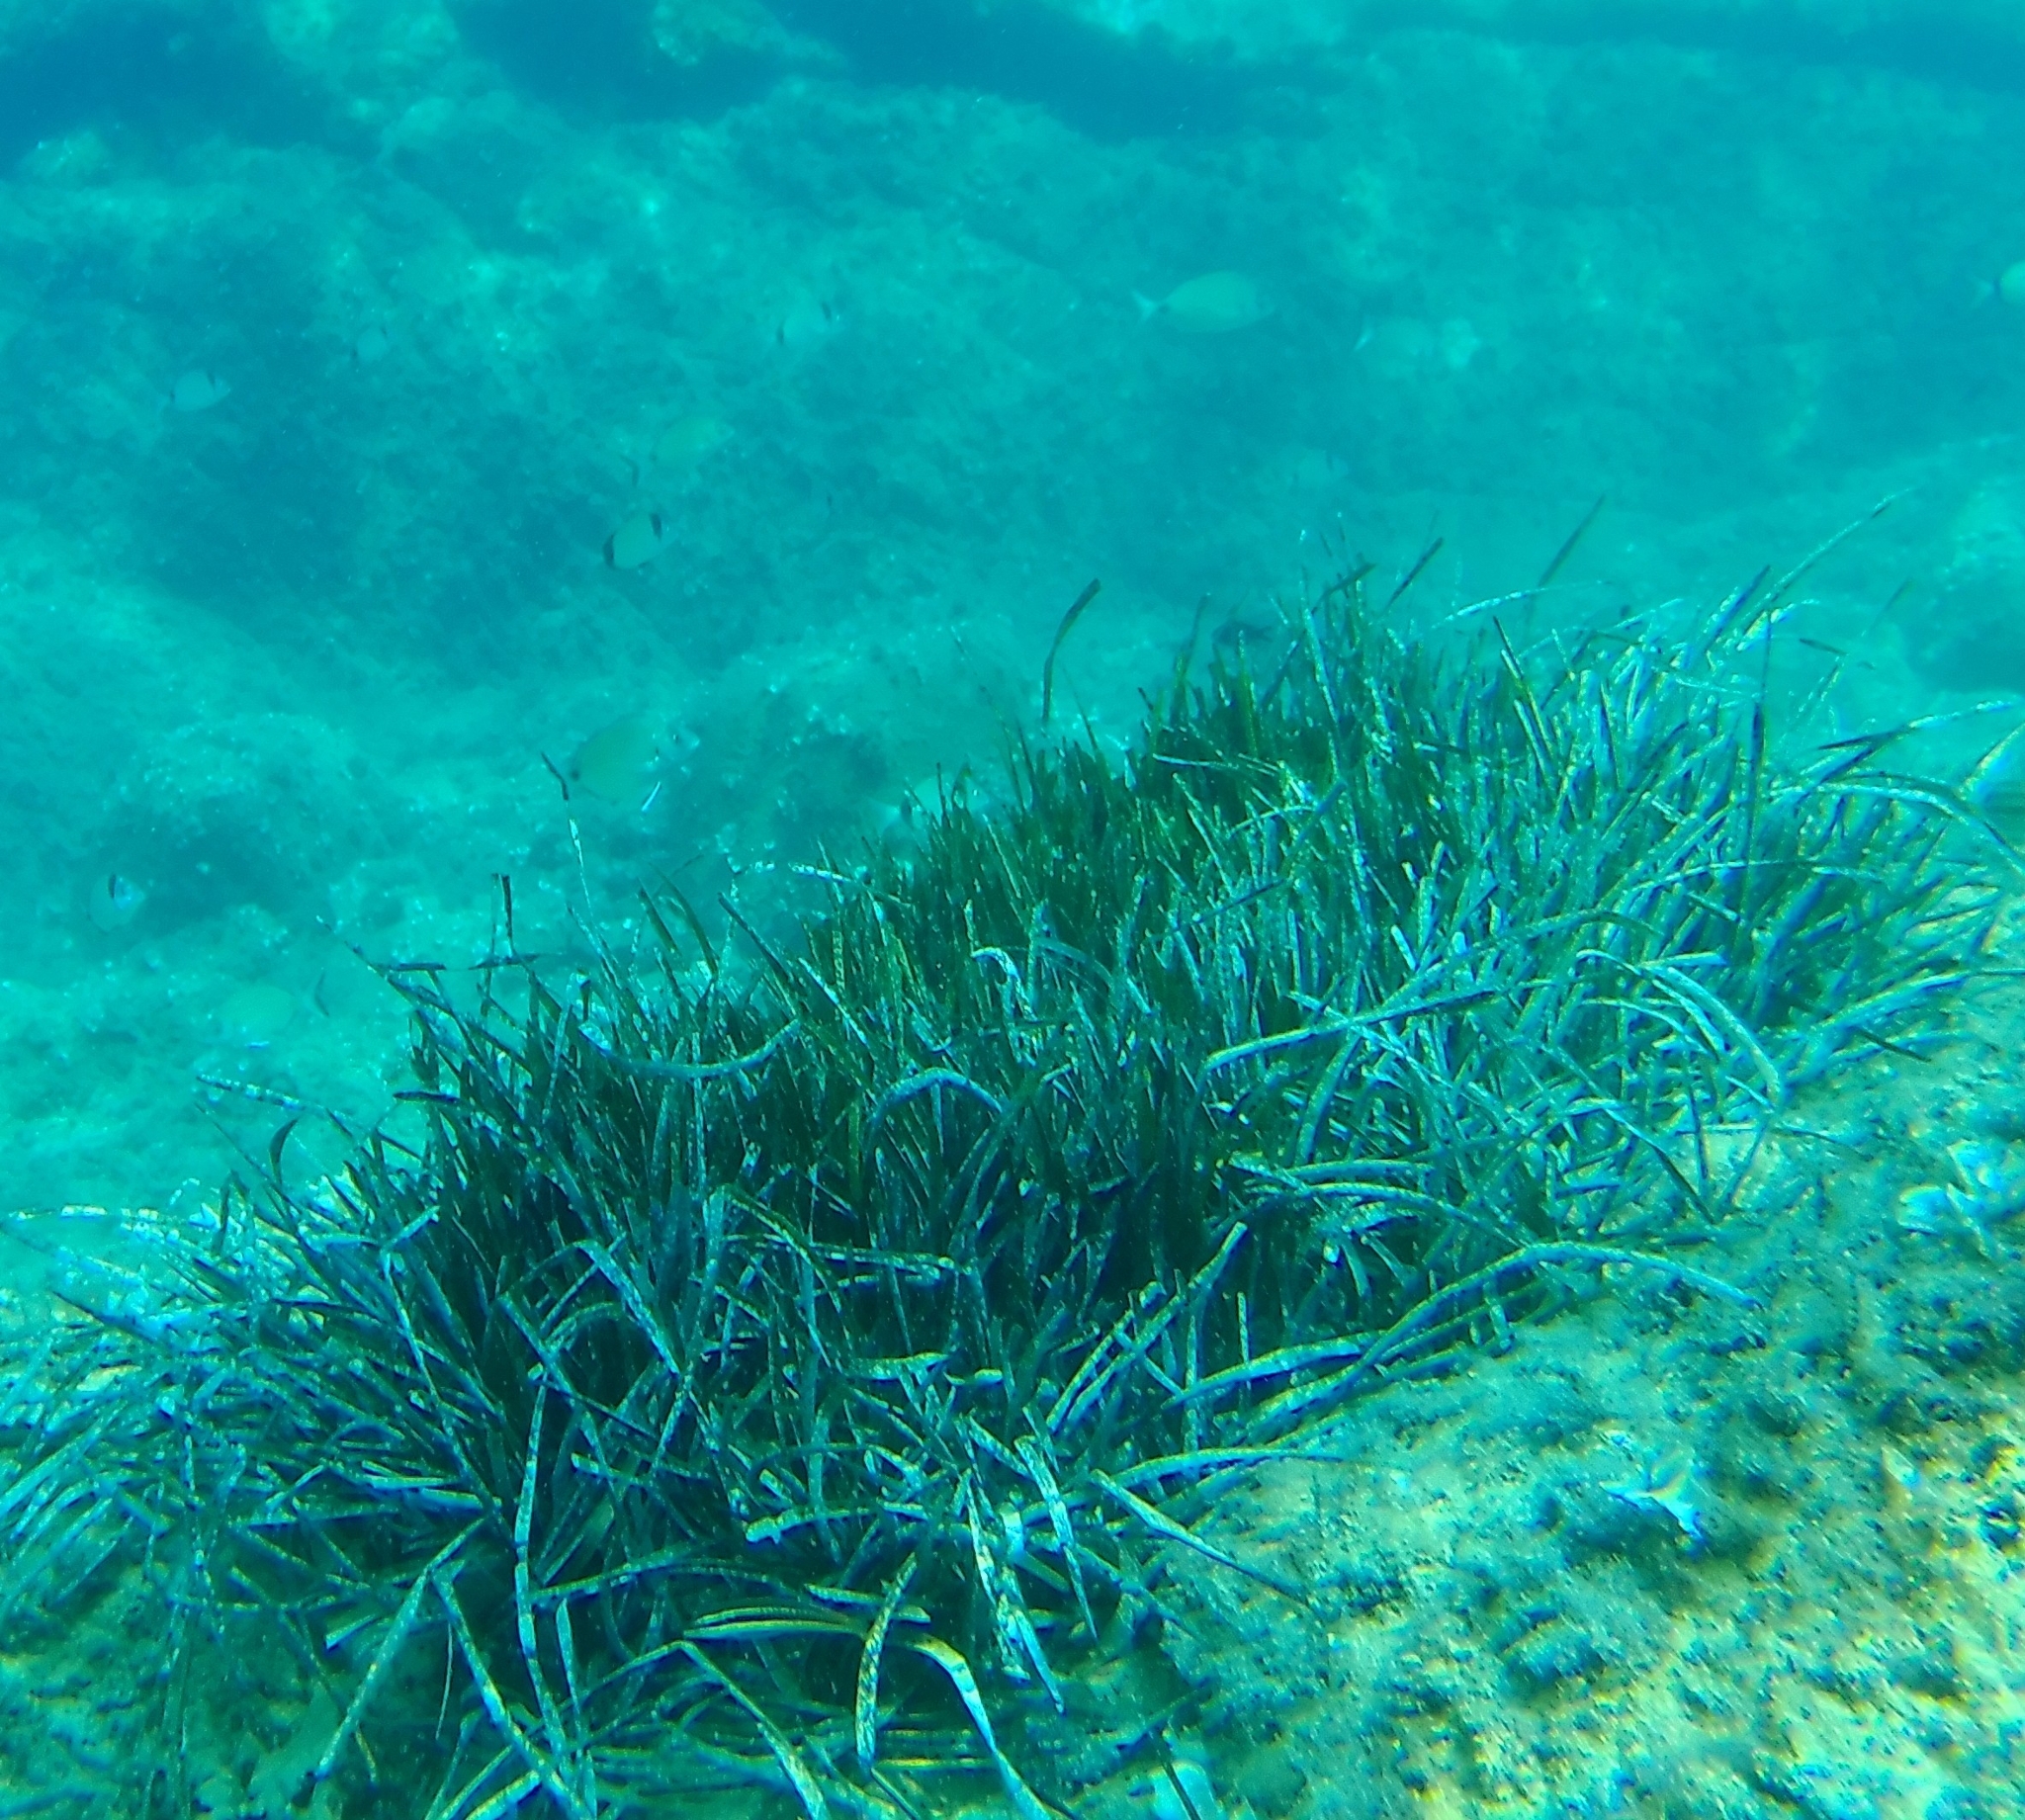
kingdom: Plantae
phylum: Tracheophyta
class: Liliopsida
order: Alismatales
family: Posidoniaceae
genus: Posidonia
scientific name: Posidonia oceanica
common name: Mediterranean tapeweed
